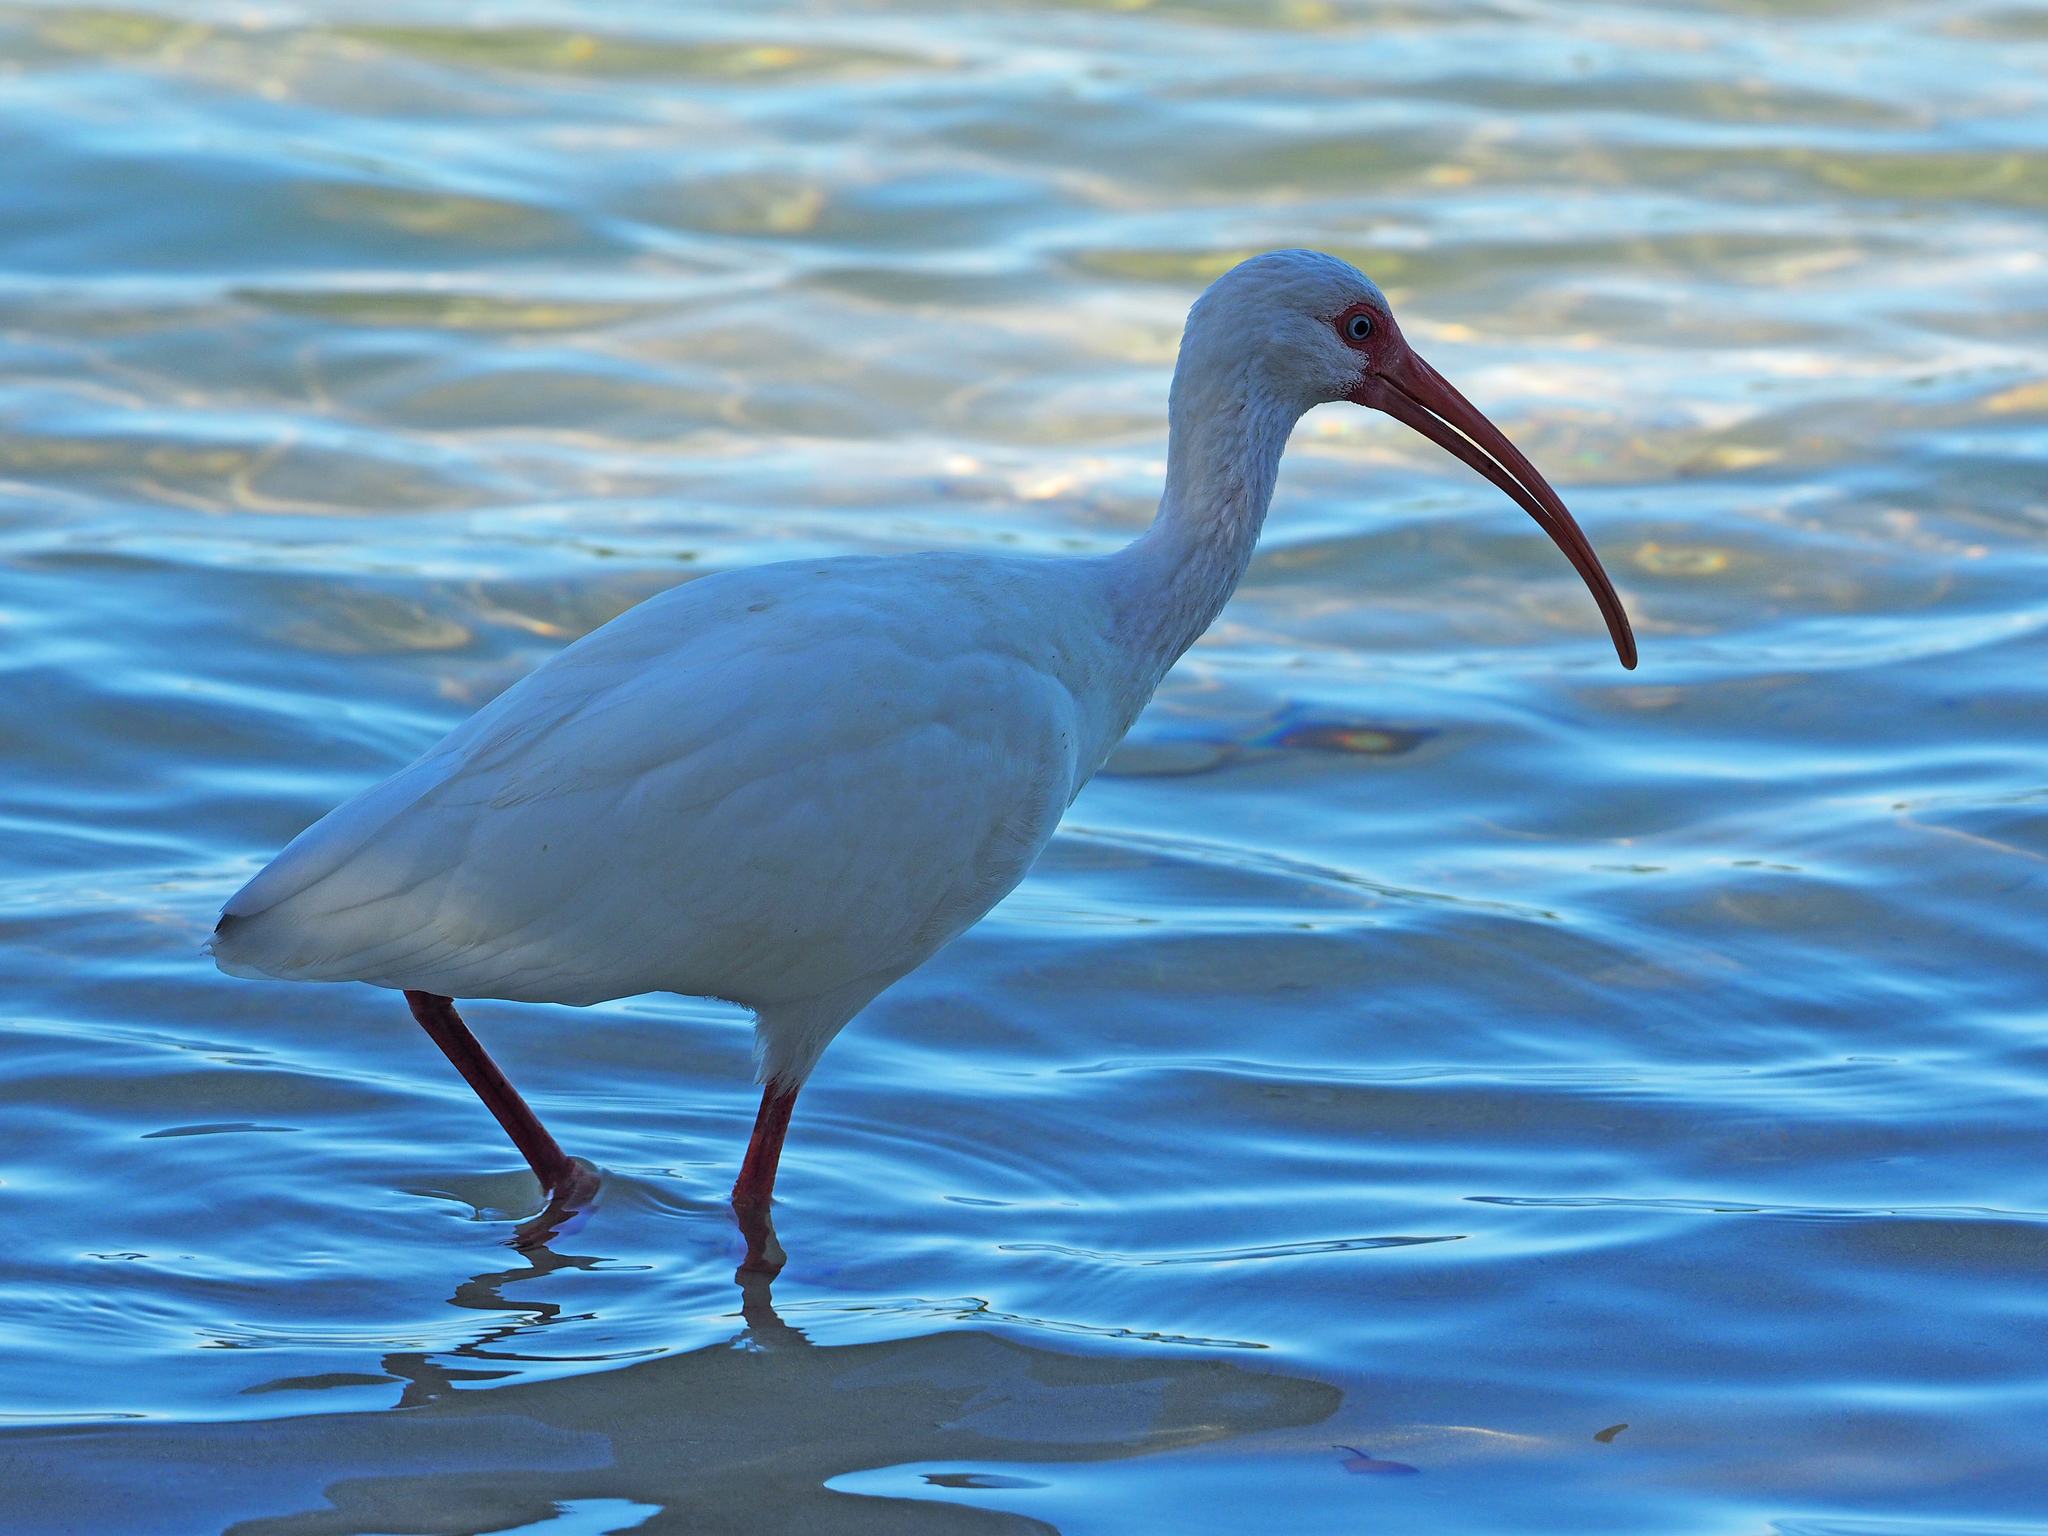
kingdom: Animalia
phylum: Chordata
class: Aves
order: Pelecaniformes
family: Threskiornithidae
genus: Eudocimus
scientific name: Eudocimus albus
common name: White ibis
